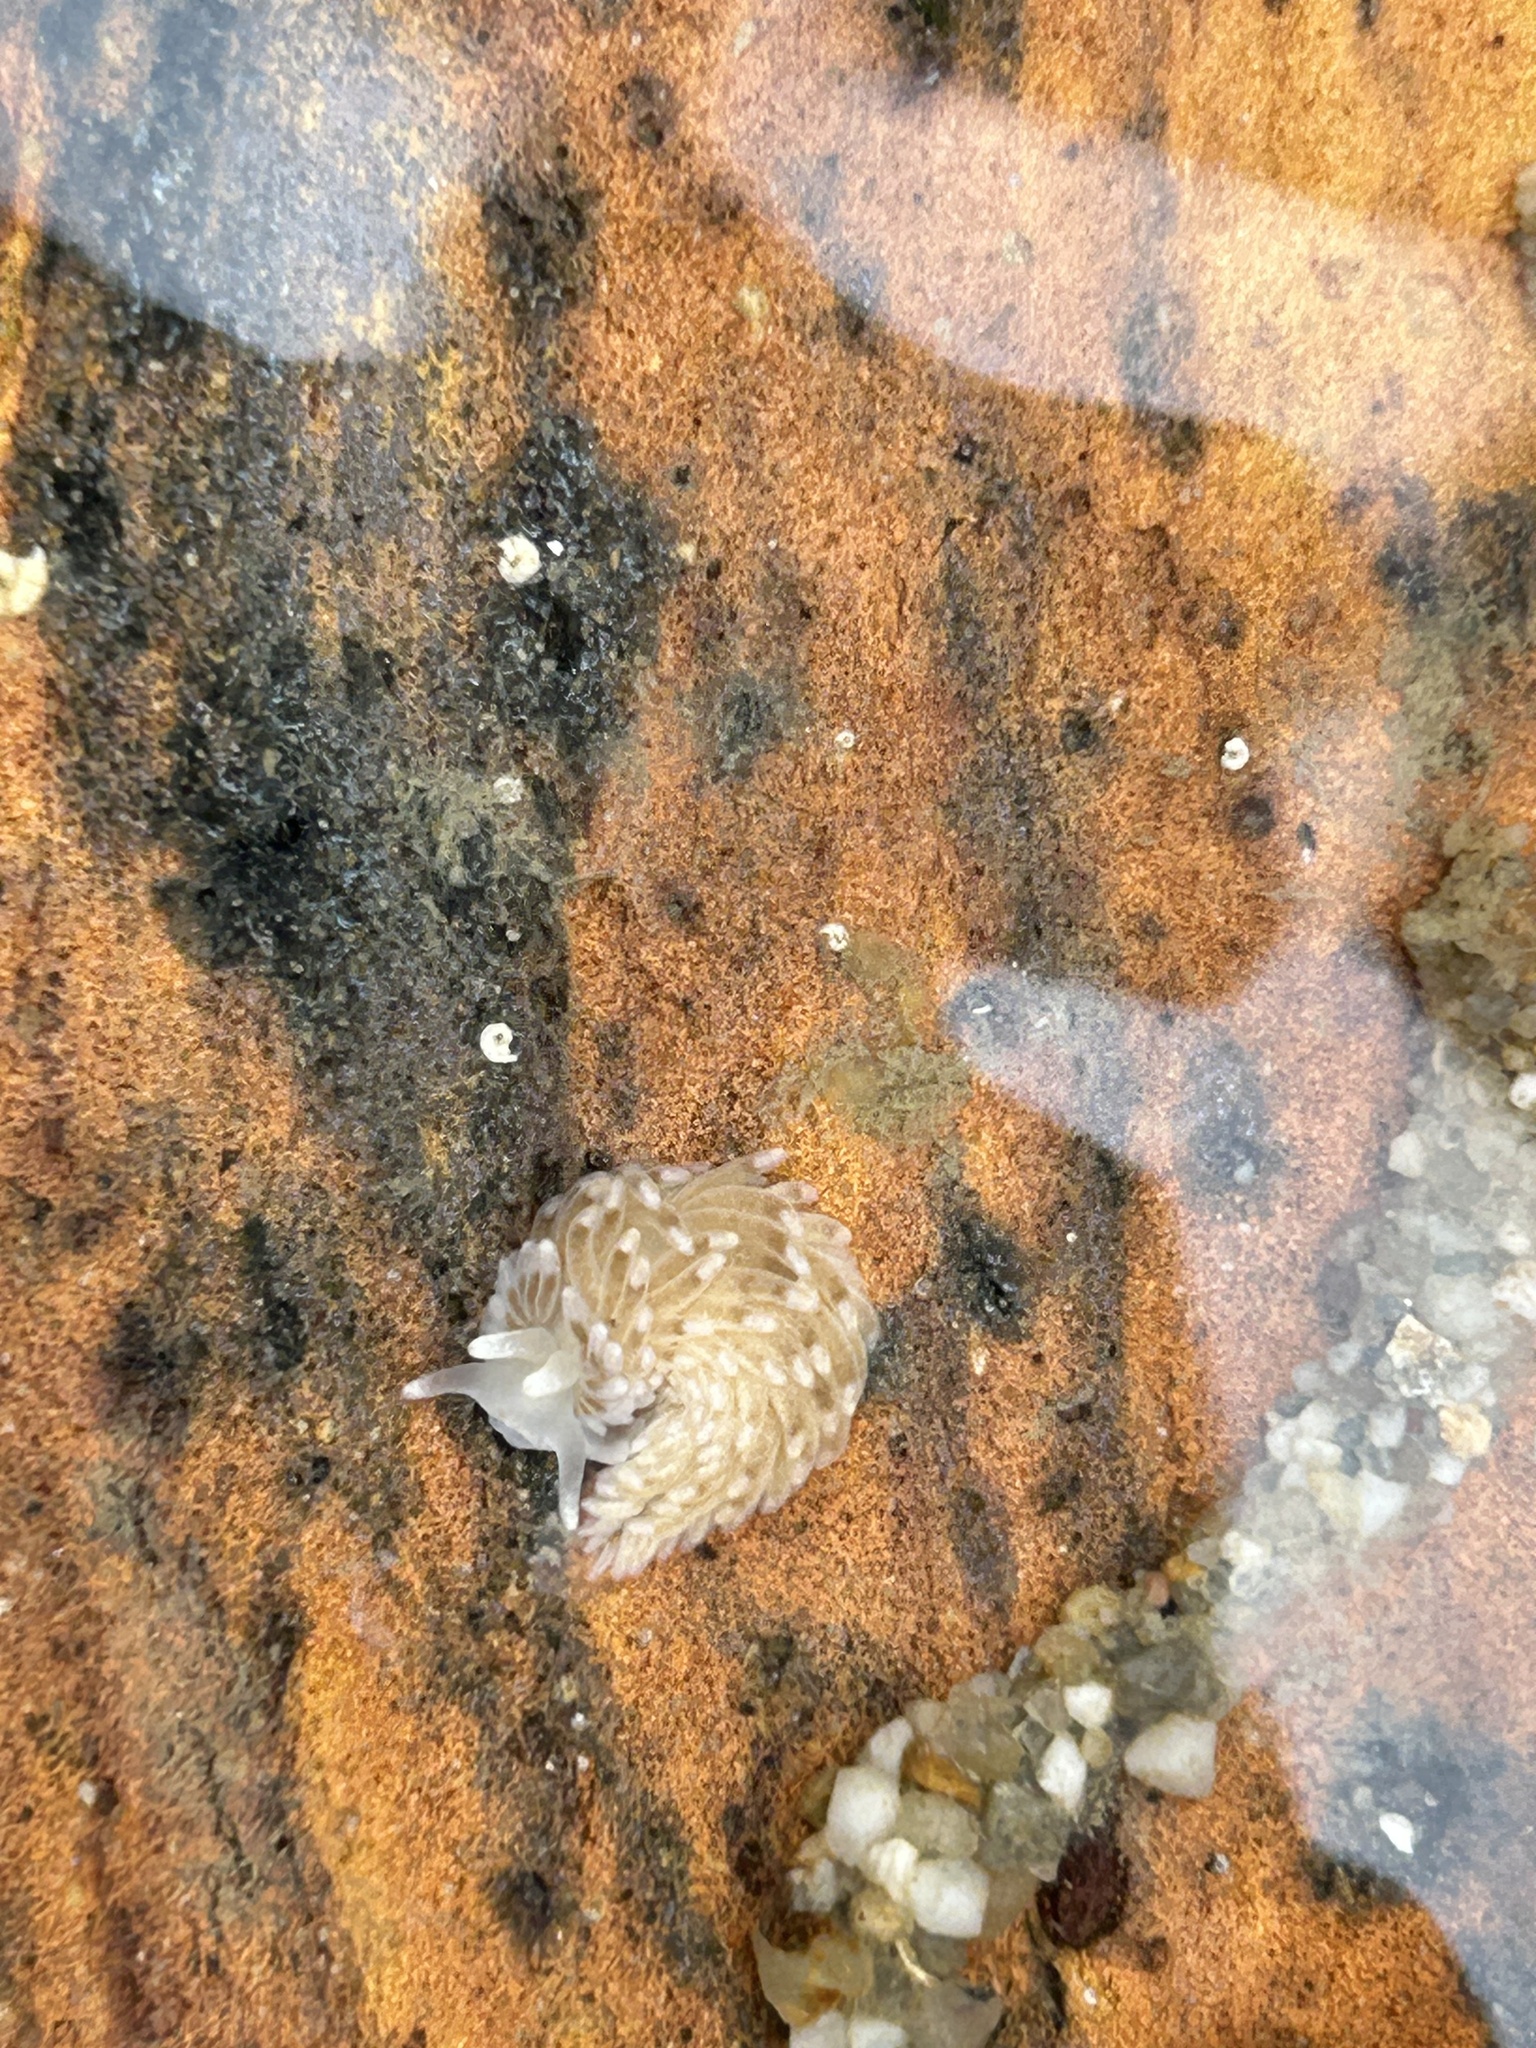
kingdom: Animalia
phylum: Mollusca
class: Gastropoda
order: Nudibranchia
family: Aeolidiidae
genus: Aeolidiella
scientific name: Aeolidiella alderi
